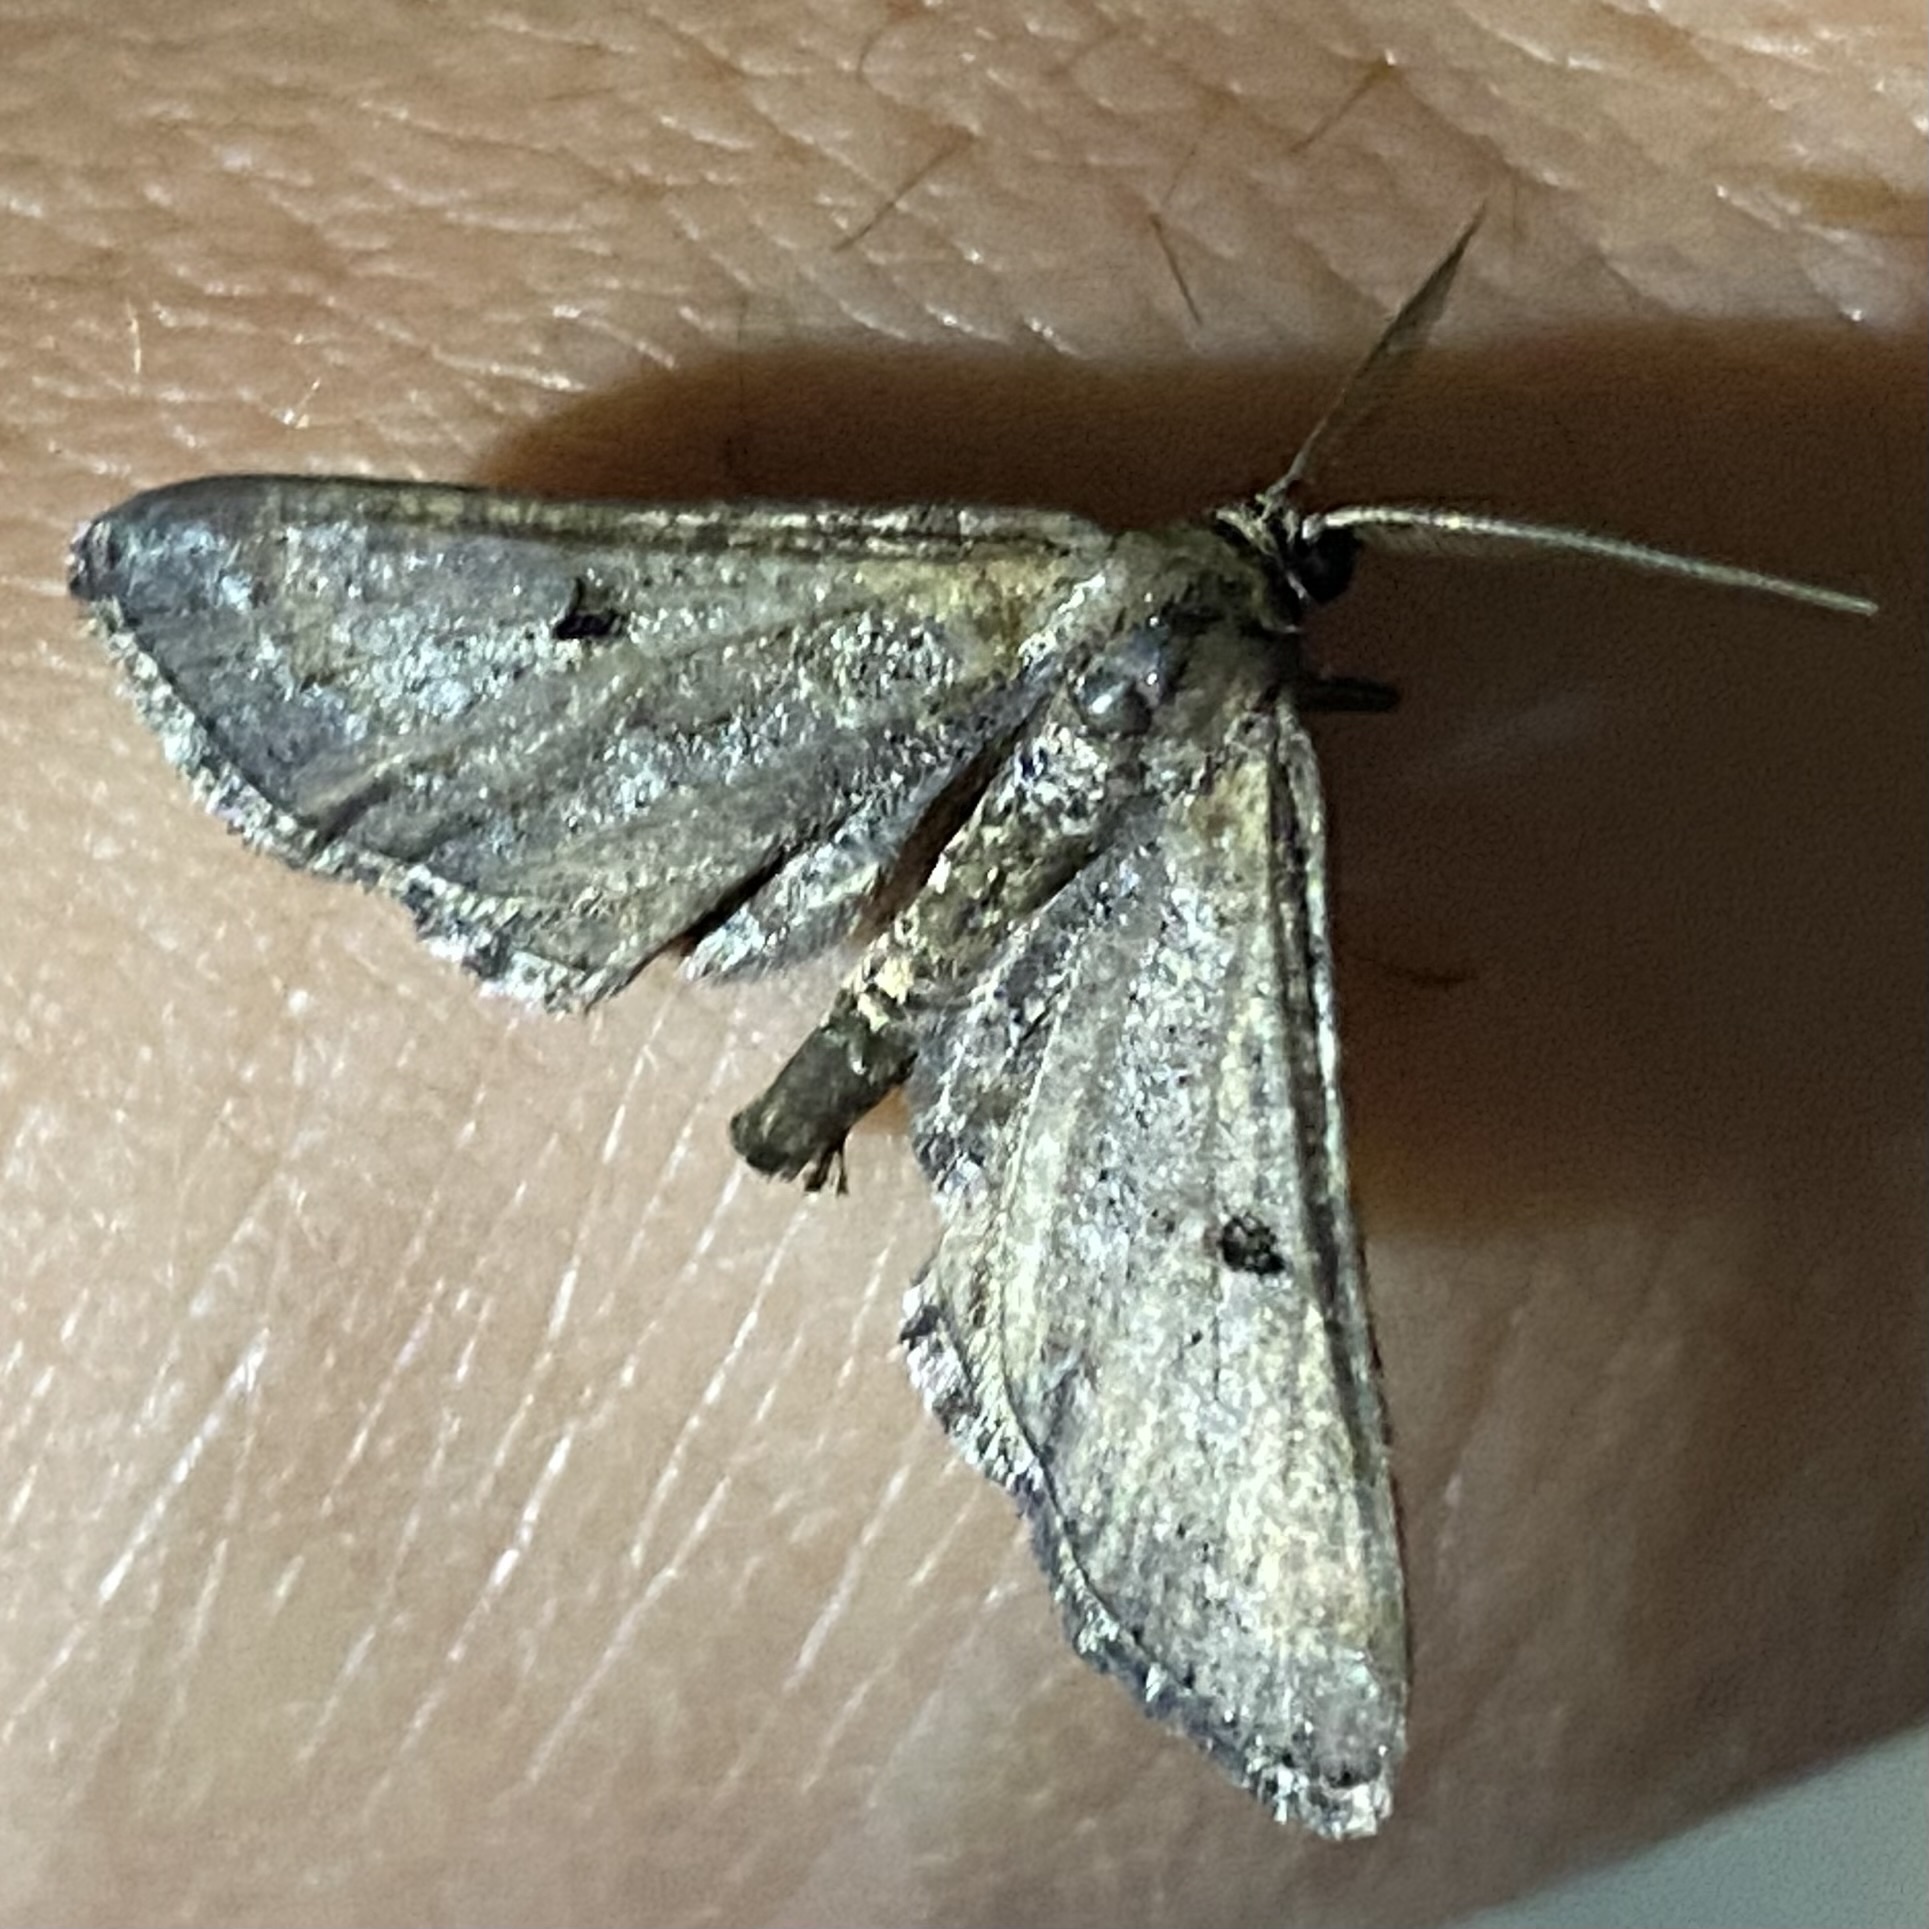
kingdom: Animalia
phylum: Arthropoda
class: Insecta
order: Lepidoptera
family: Geometridae
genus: Tornos
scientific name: Tornos
